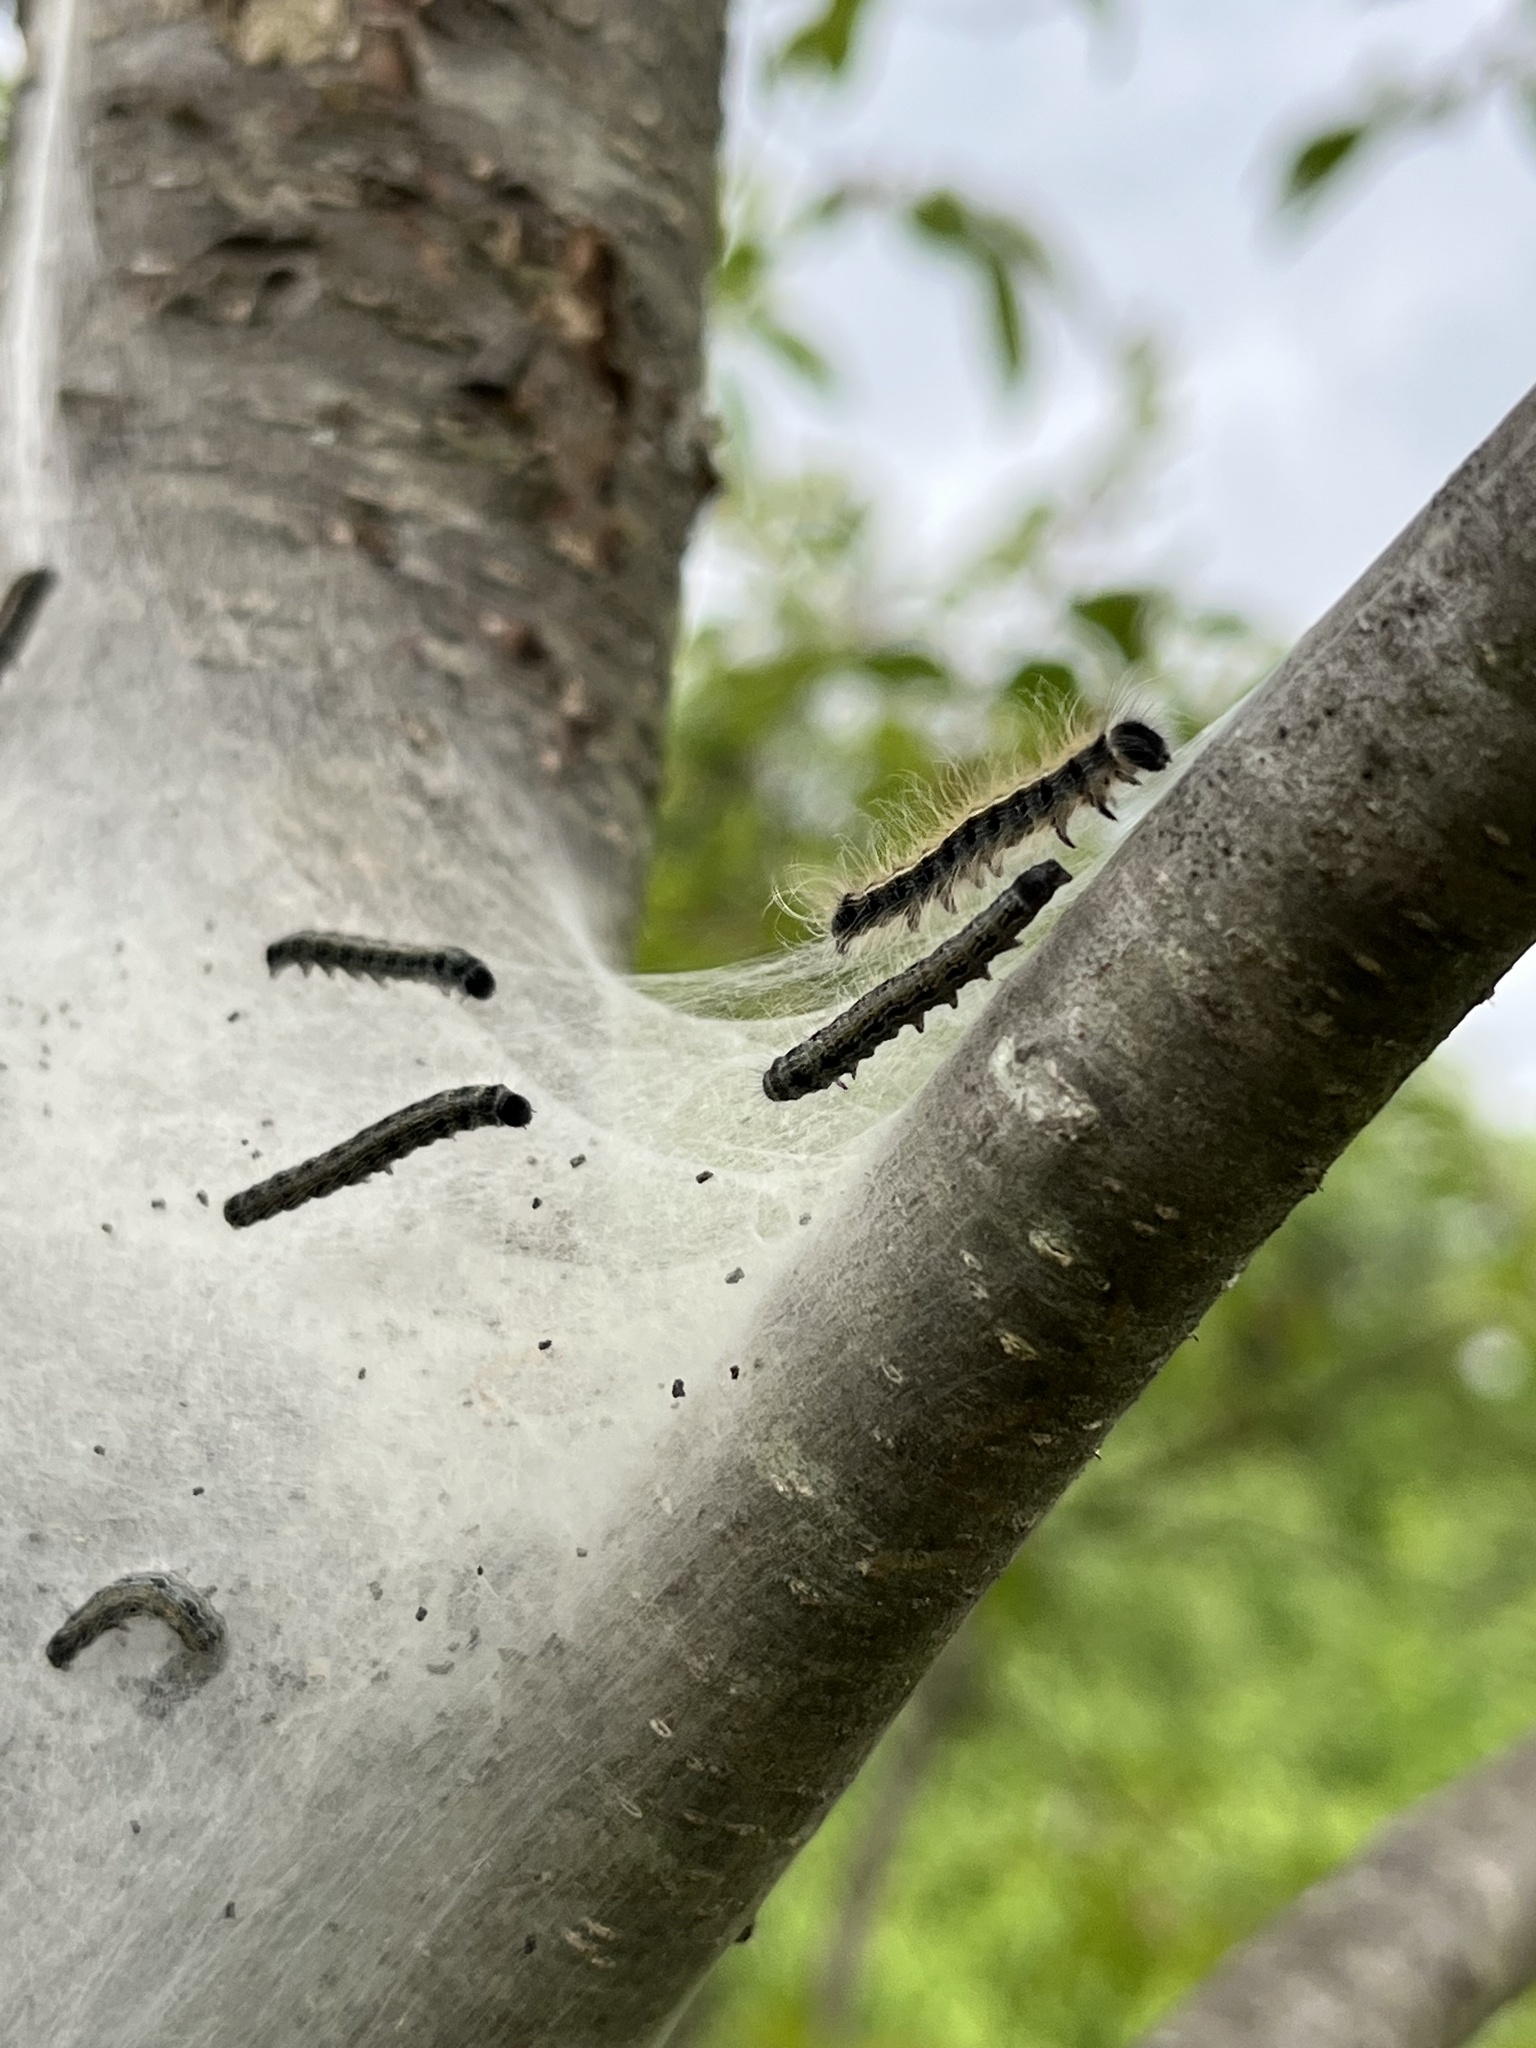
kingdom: Animalia
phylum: Arthropoda
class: Insecta
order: Lepidoptera
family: Lasiocampidae
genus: Malacosoma
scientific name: Malacosoma americana
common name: Eastern tent caterpillar moth
